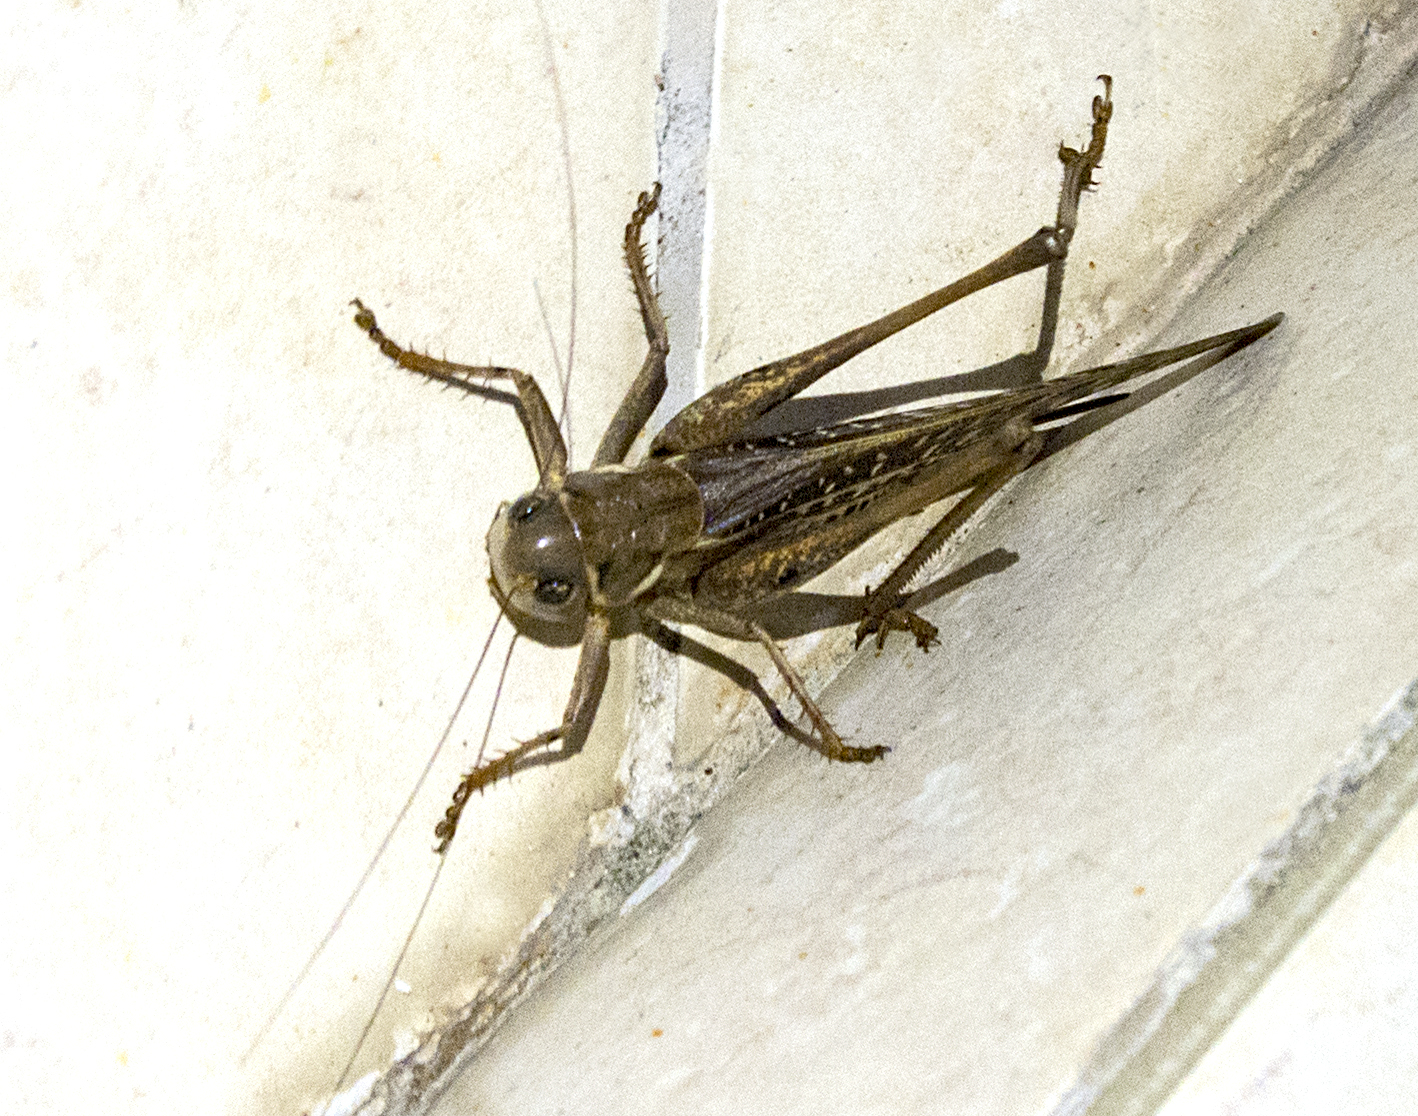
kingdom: Animalia
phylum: Arthropoda
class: Insecta
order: Orthoptera
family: Tettigoniidae
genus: Decticus
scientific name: Decticus albifrons
